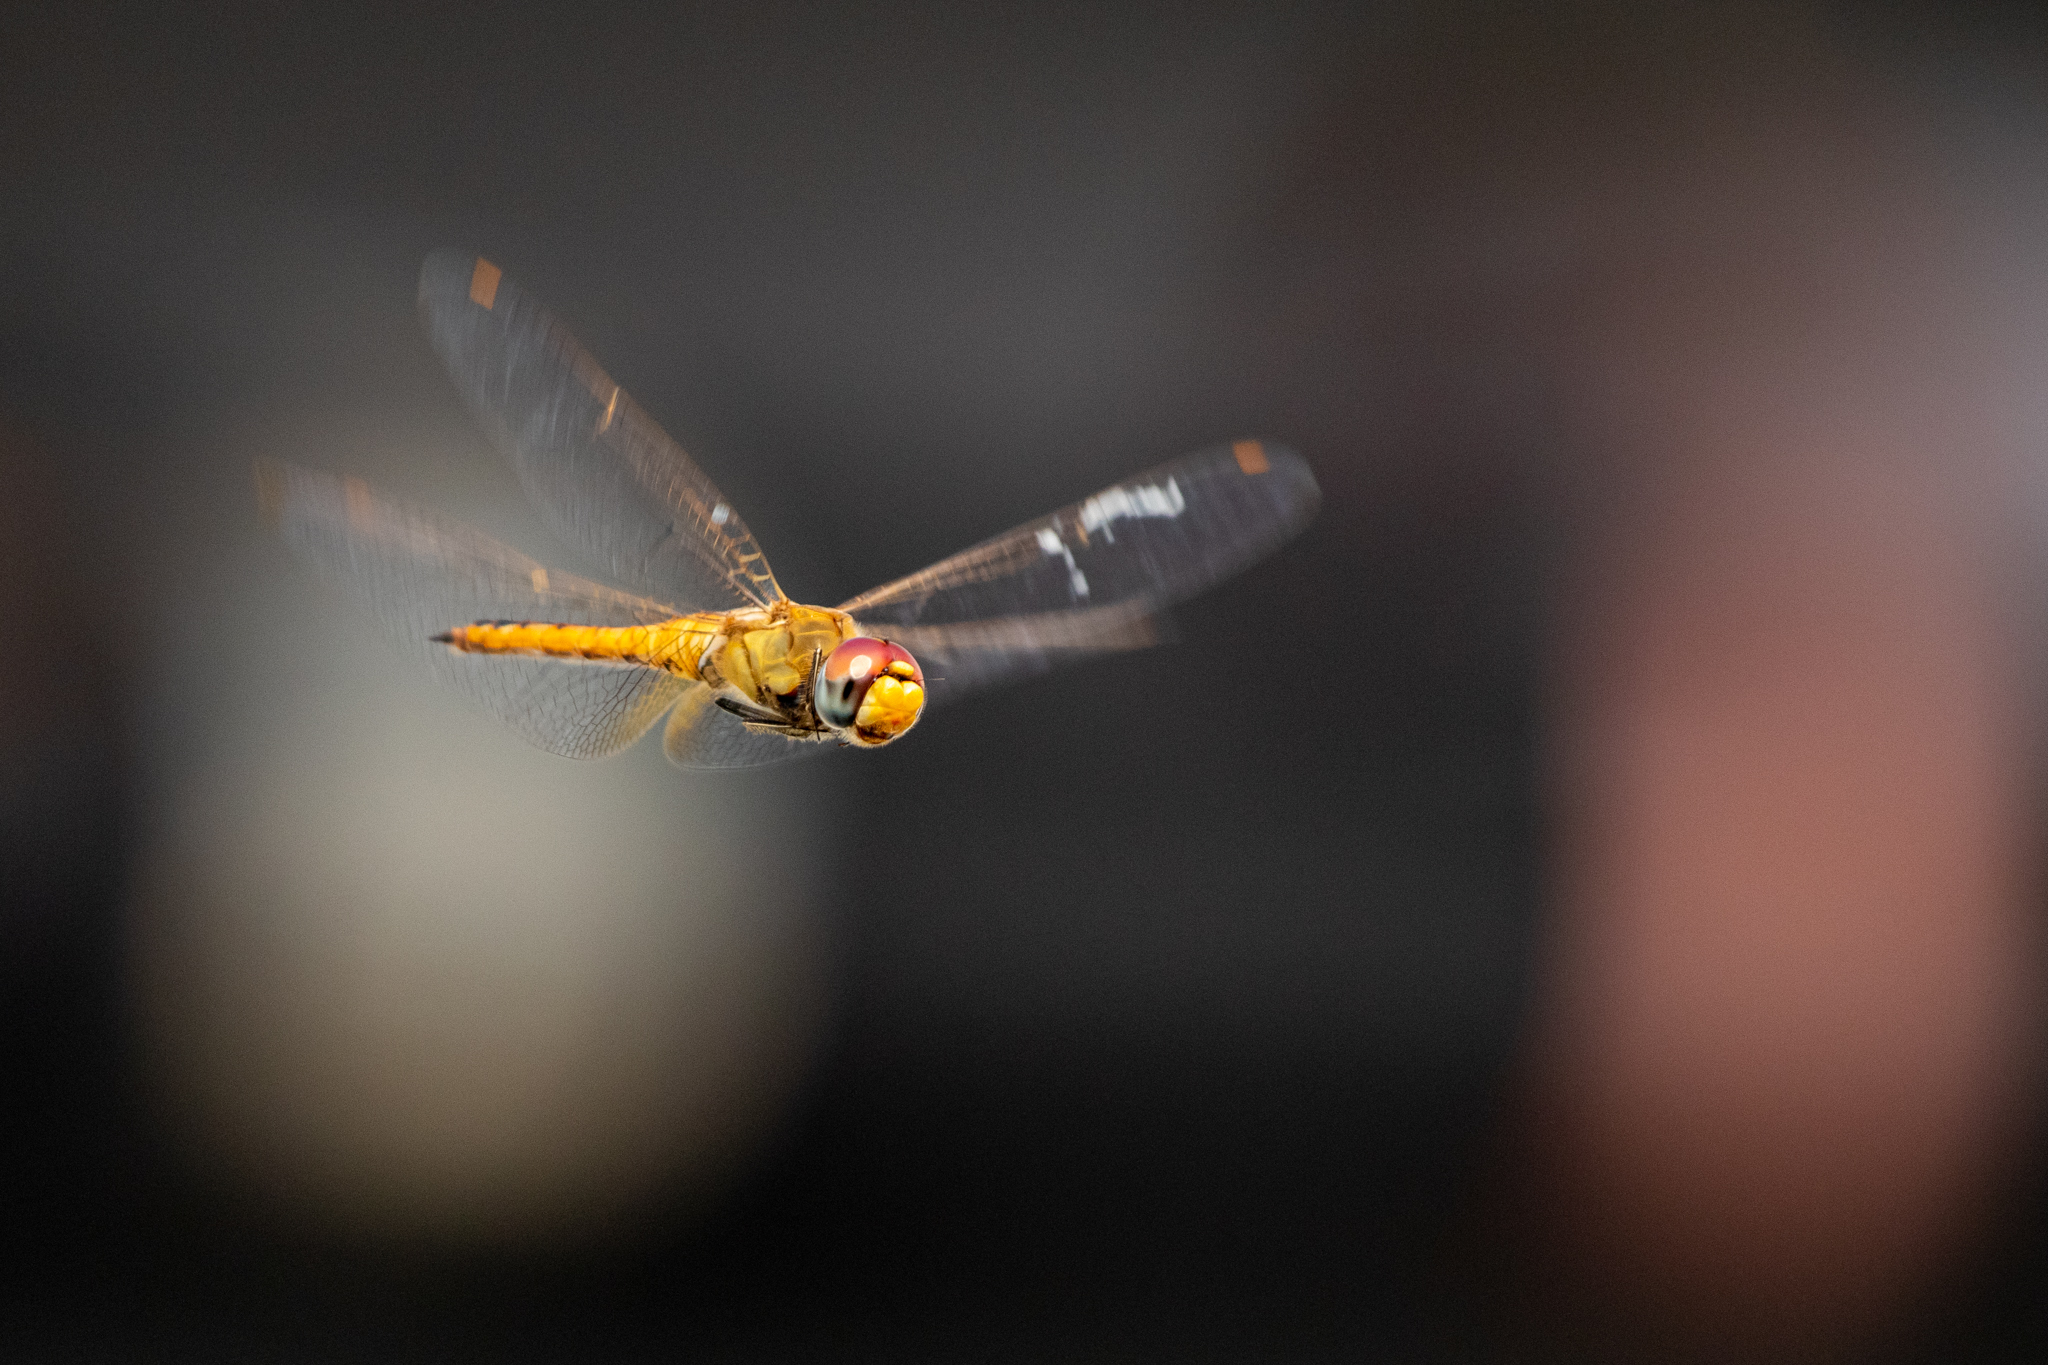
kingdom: Animalia
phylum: Arthropoda
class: Insecta
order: Odonata
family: Libellulidae
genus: Pantala
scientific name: Pantala flavescens
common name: Wandering glider
